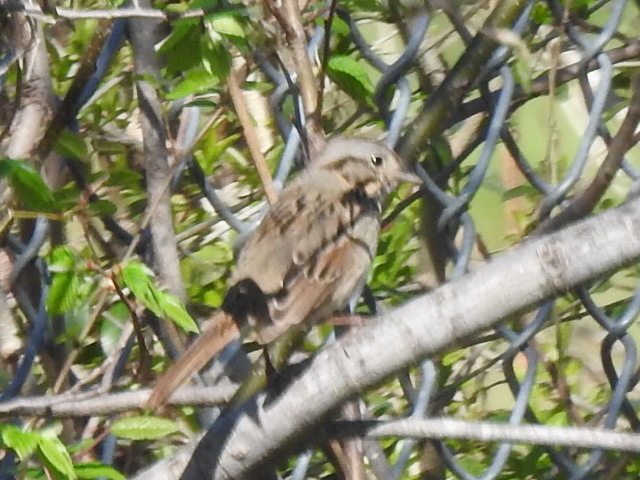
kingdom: Animalia
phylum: Chordata
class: Aves
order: Passeriformes
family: Passerellidae
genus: Melospiza
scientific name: Melospiza lincolnii
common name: Lincoln's sparrow
